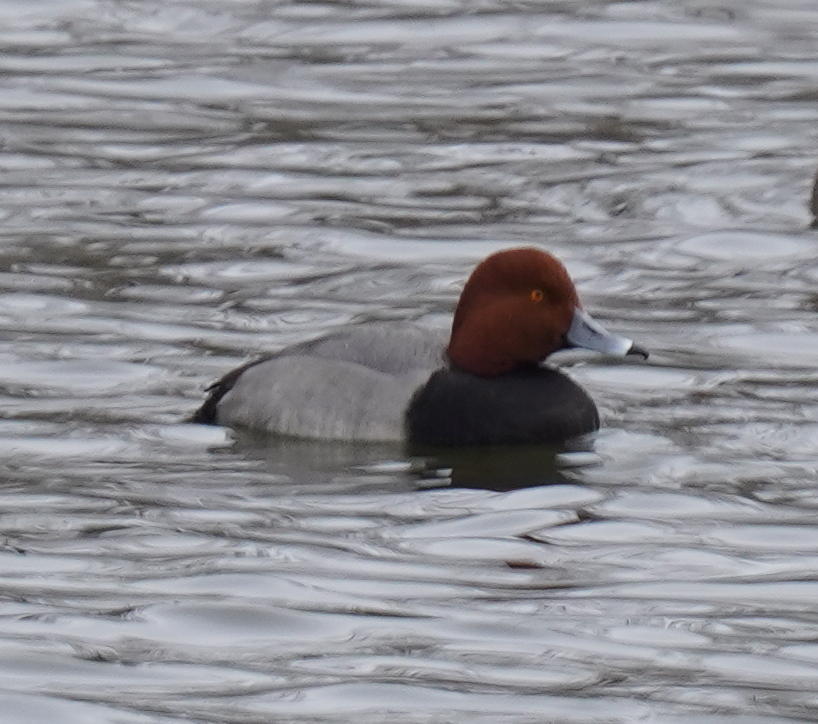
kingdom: Animalia
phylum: Chordata
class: Aves
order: Anseriformes
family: Anatidae
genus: Aythya
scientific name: Aythya americana
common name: Redhead
